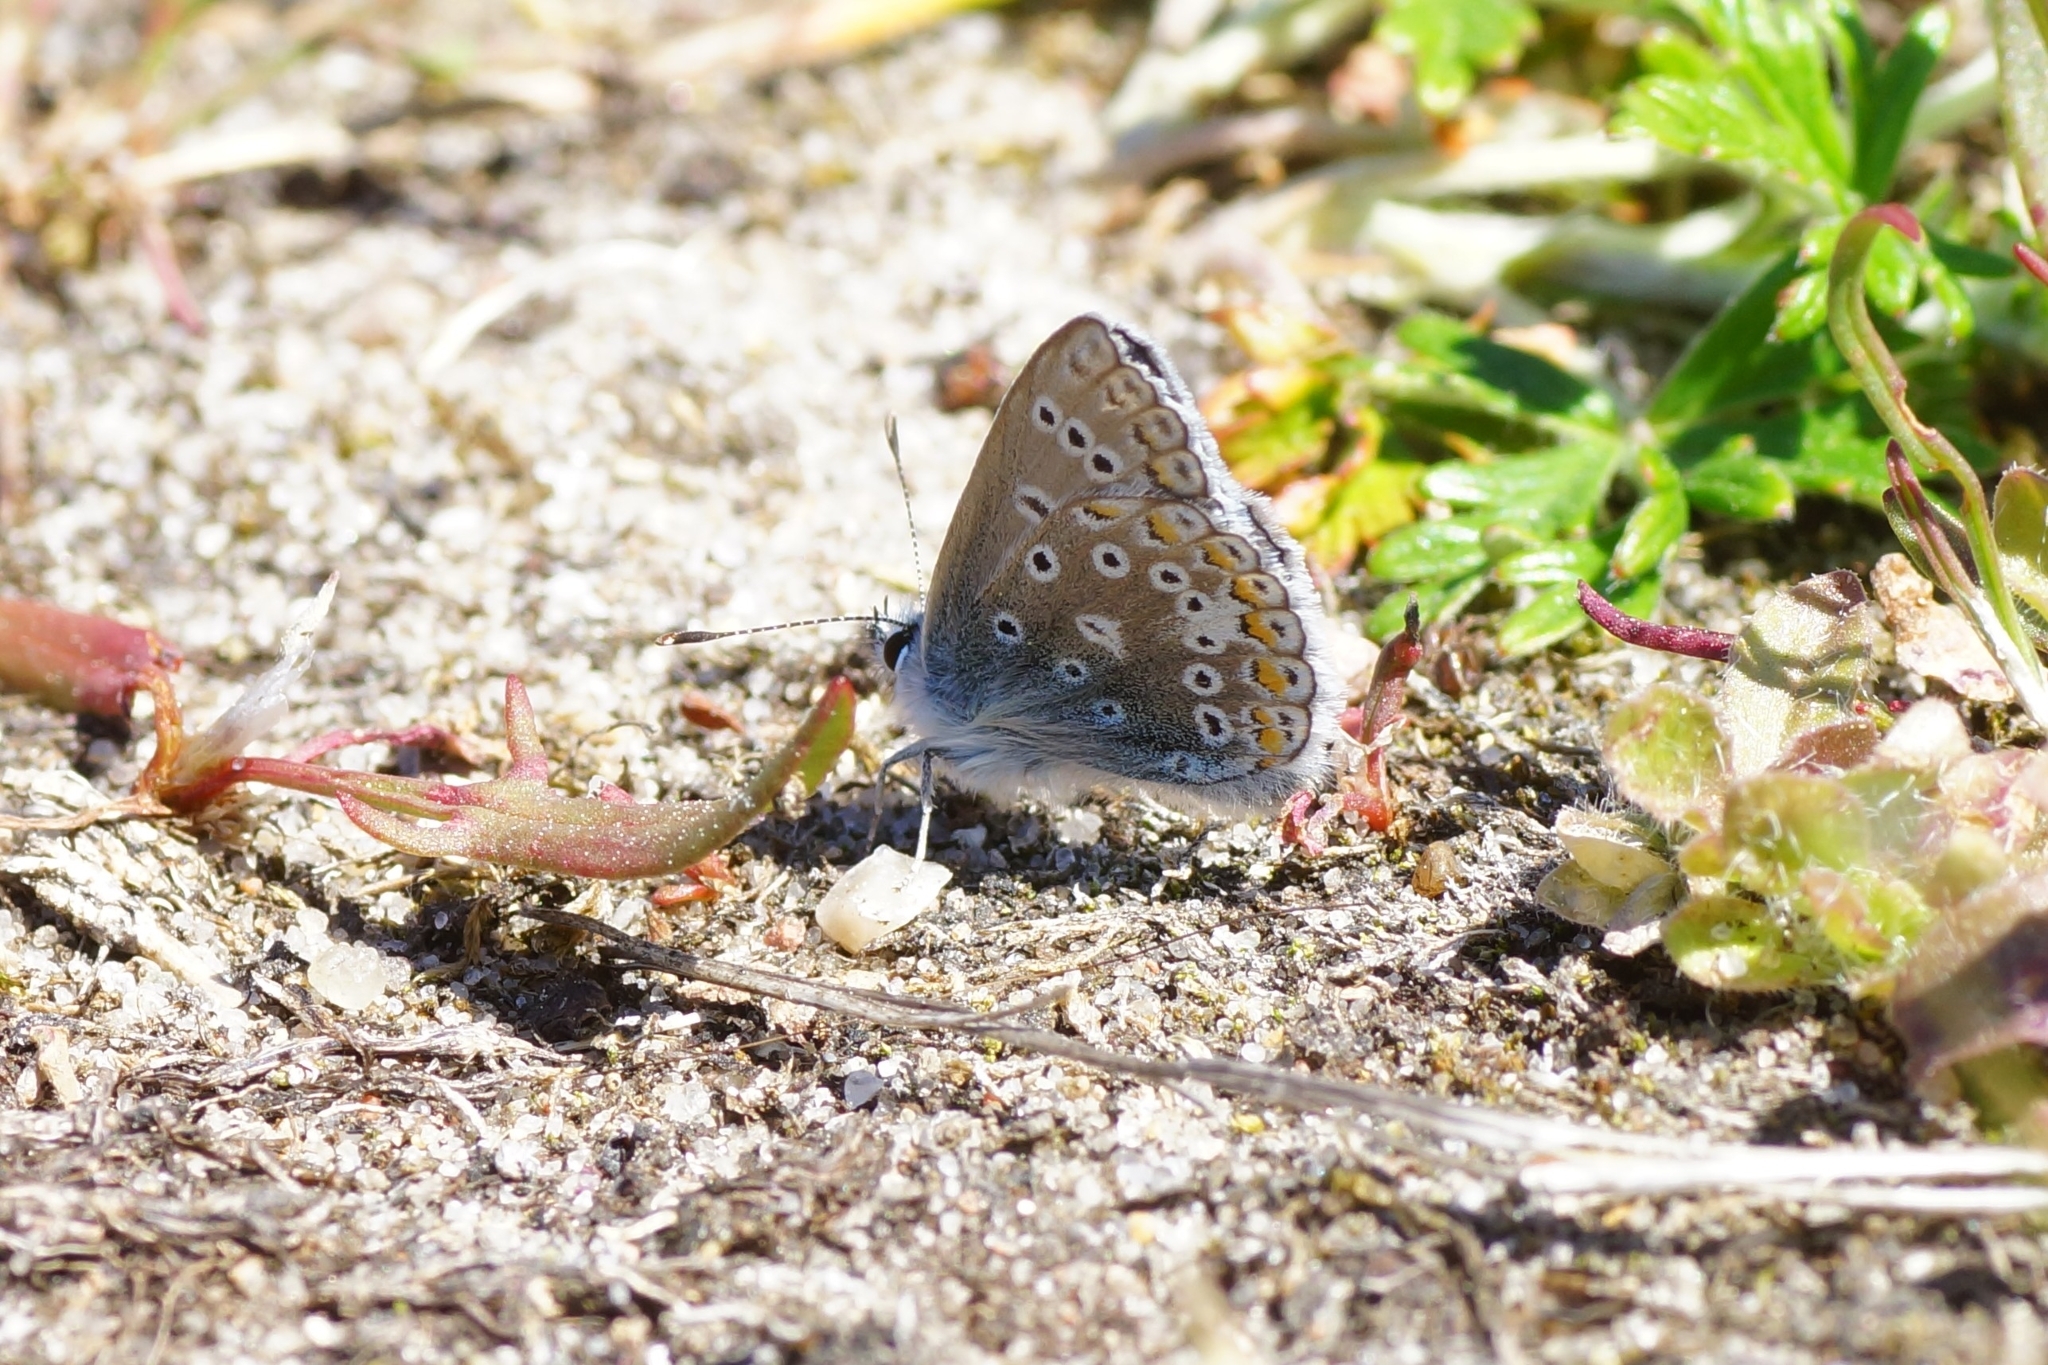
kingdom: Animalia
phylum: Arthropoda
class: Insecta
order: Lepidoptera
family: Lycaenidae
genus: Polyommatus
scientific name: Polyommatus icarus
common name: Common blue
